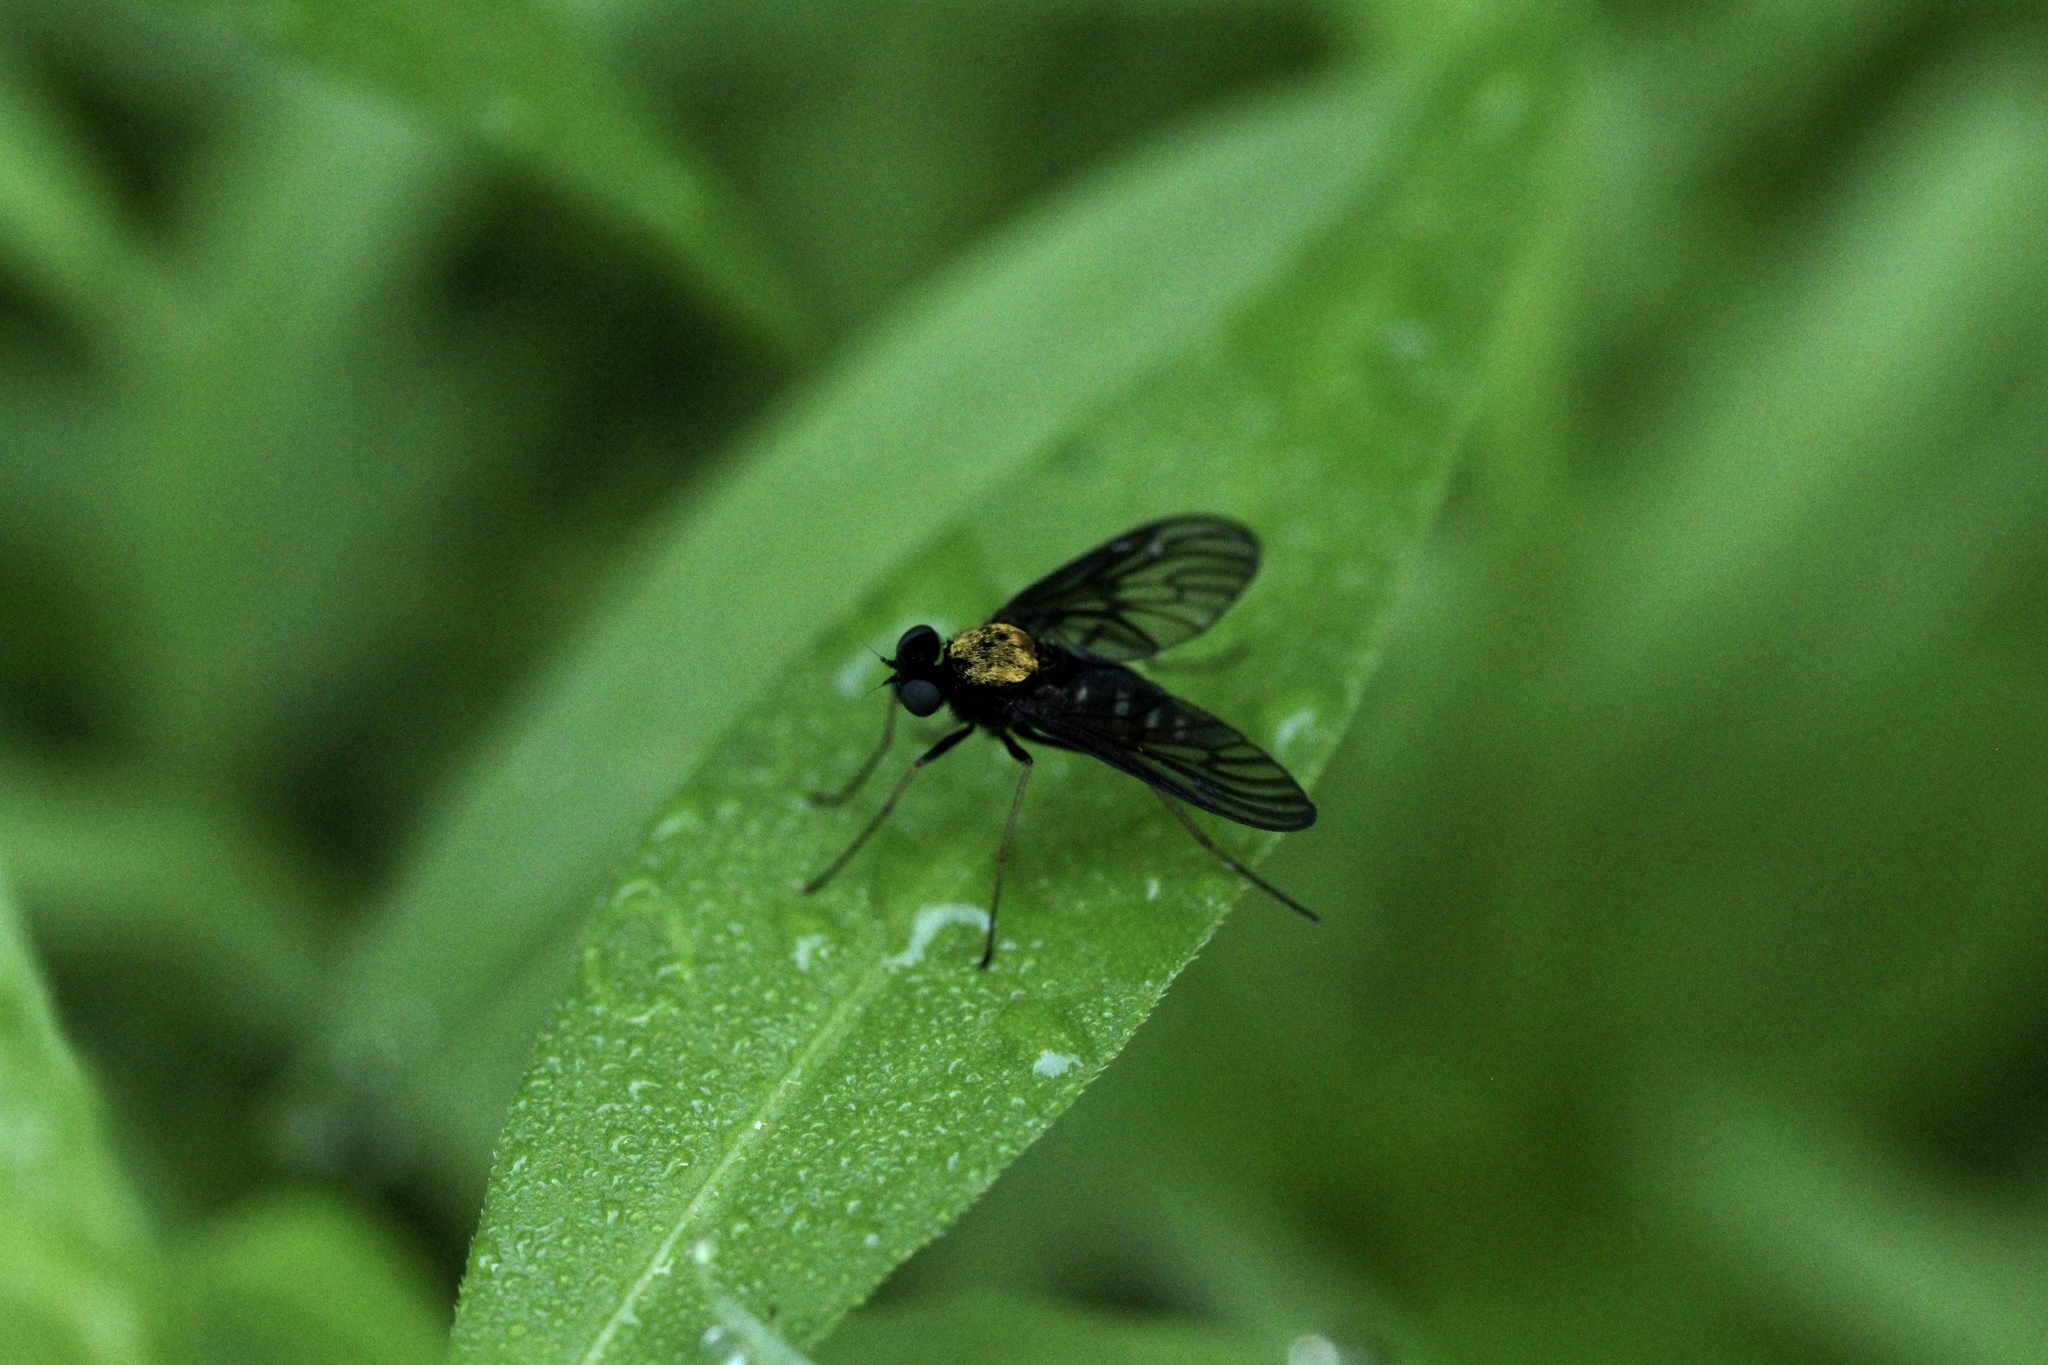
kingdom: Animalia
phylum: Arthropoda
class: Insecta
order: Diptera
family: Rhagionidae
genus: Chrysopilus
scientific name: Chrysopilus thoracicus
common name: Golden-backed snipe fly
